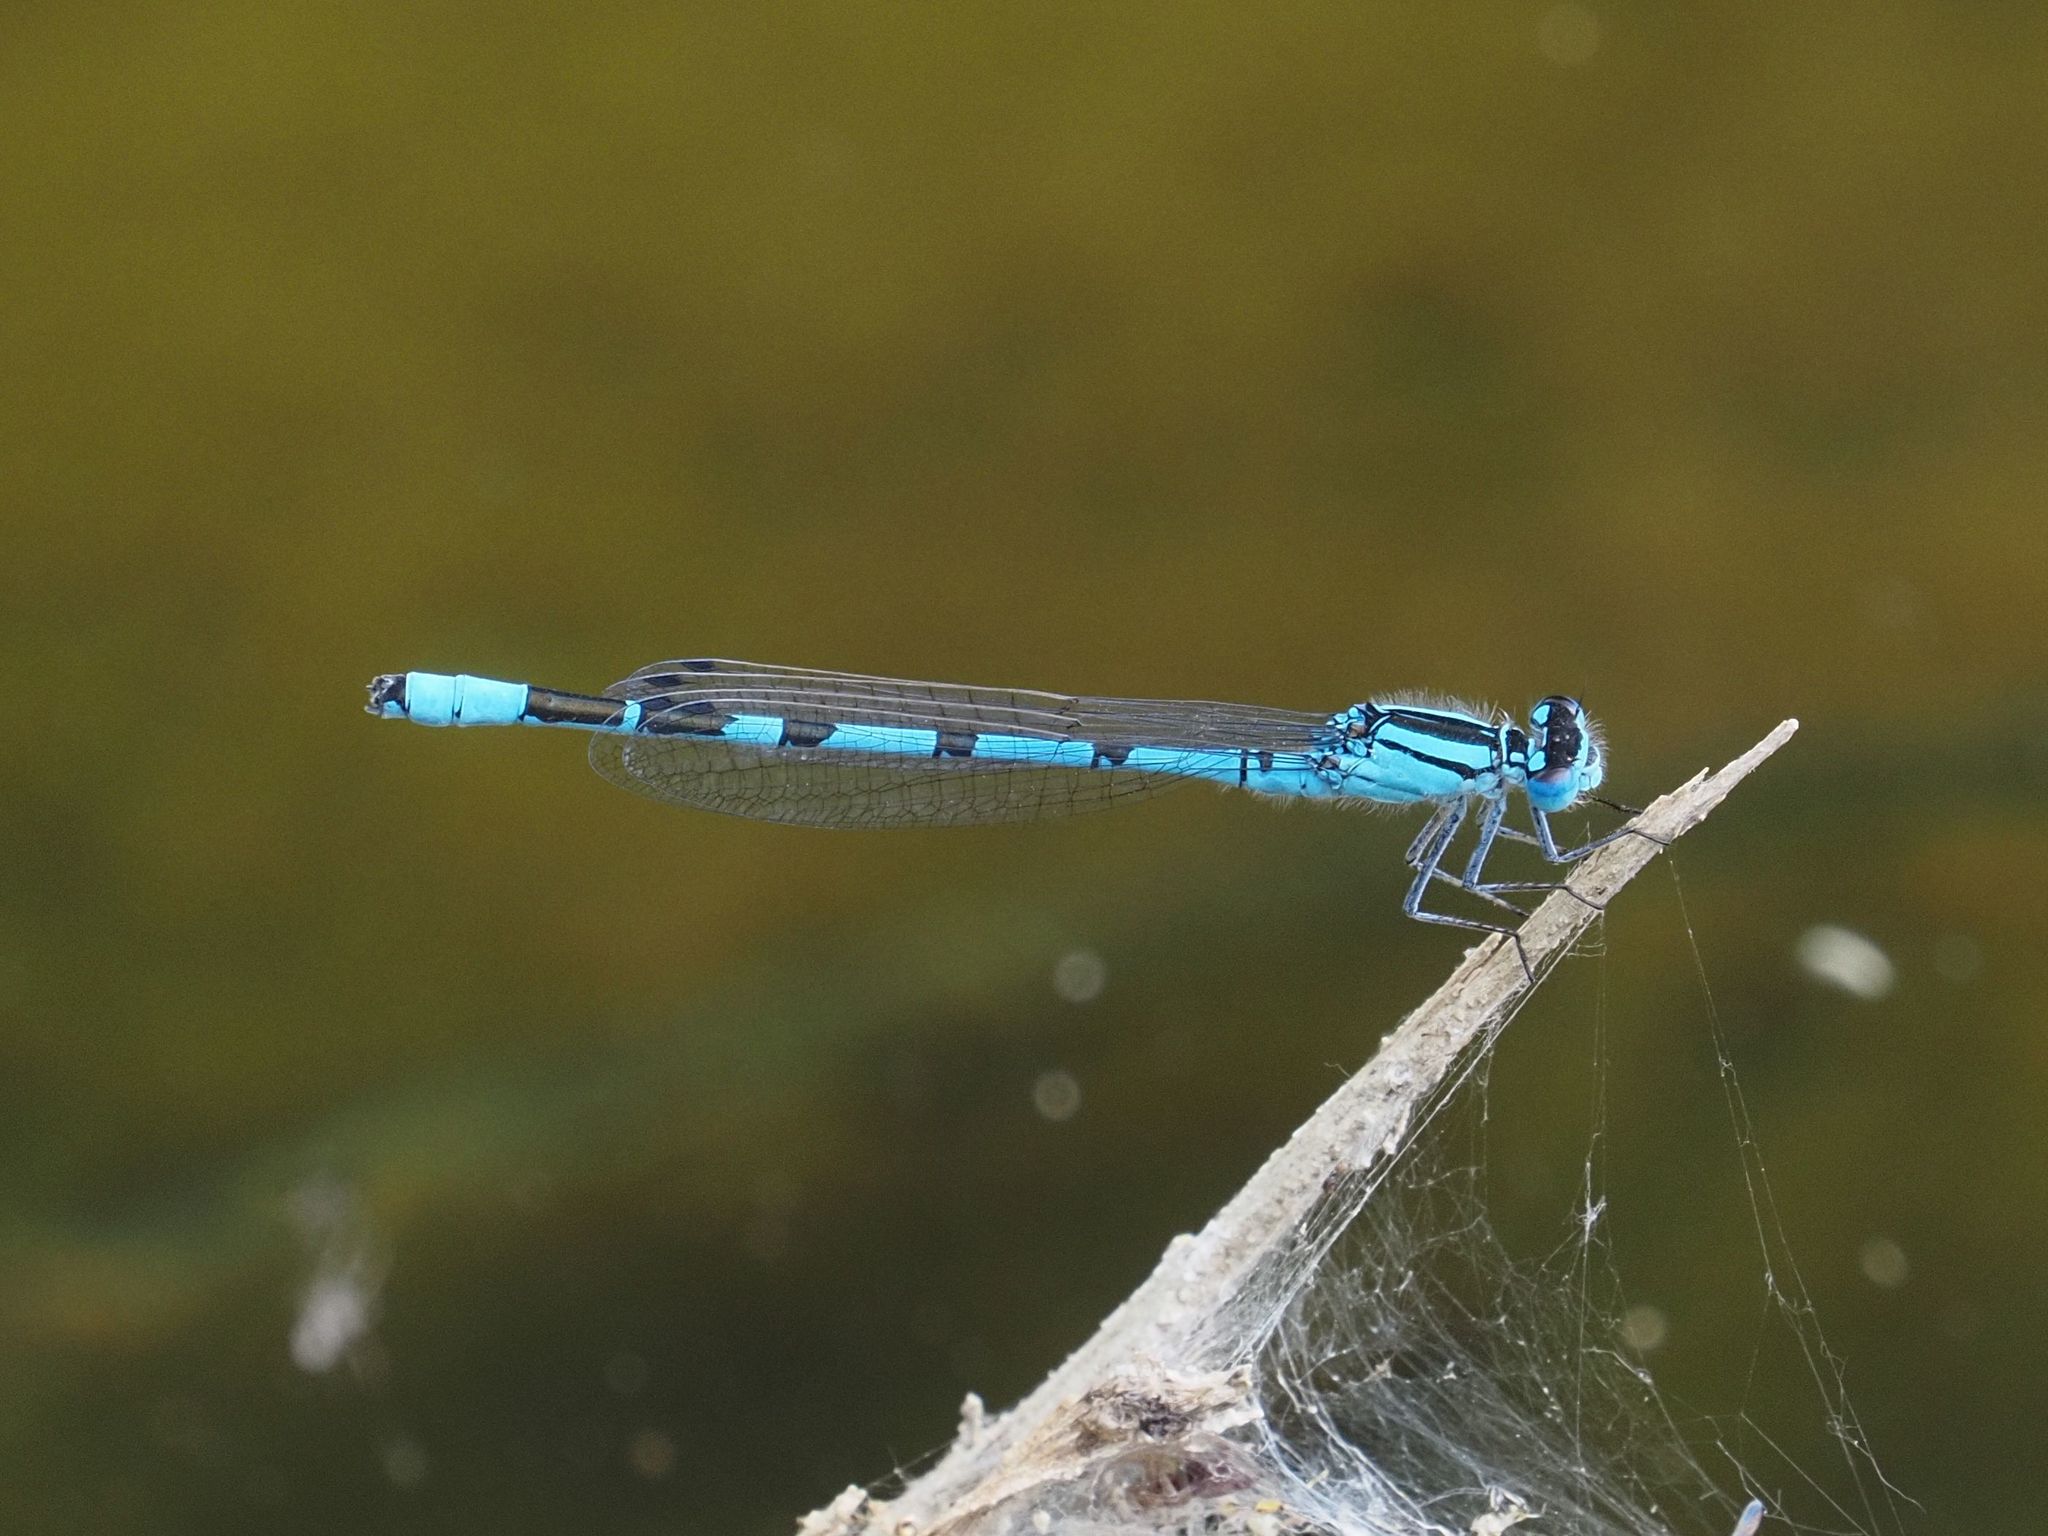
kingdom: Animalia
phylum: Arthropoda
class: Insecta
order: Odonata
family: Coenagrionidae
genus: Enallagma
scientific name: Enallagma cyathigerum
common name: Common blue damselfly
